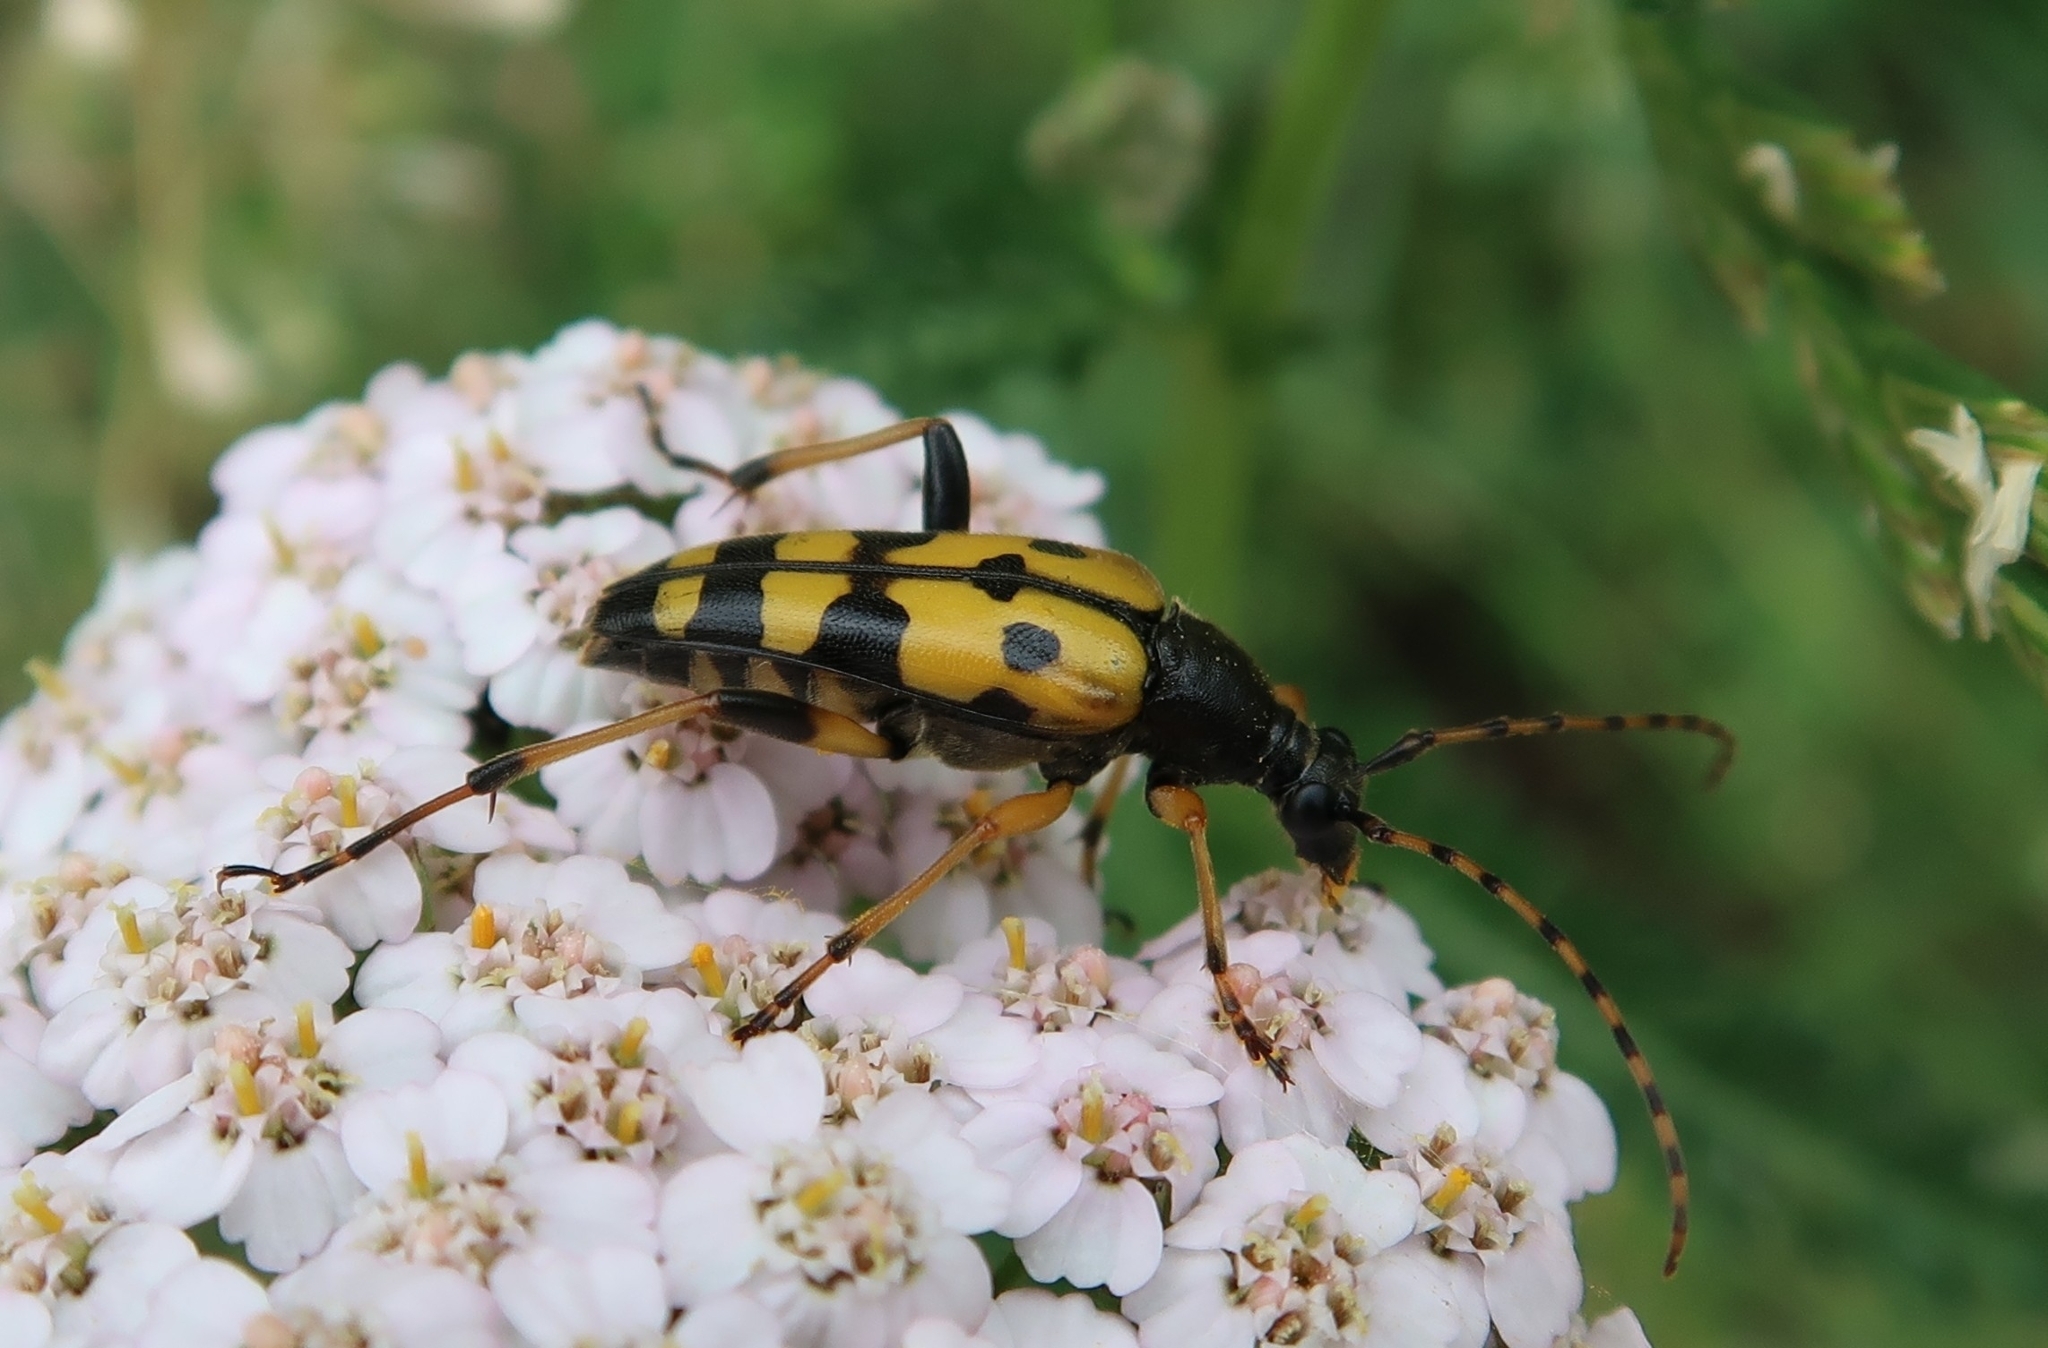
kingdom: Animalia
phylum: Arthropoda
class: Insecta
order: Coleoptera
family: Cerambycidae
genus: Rutpela
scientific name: Rutpela maculata
